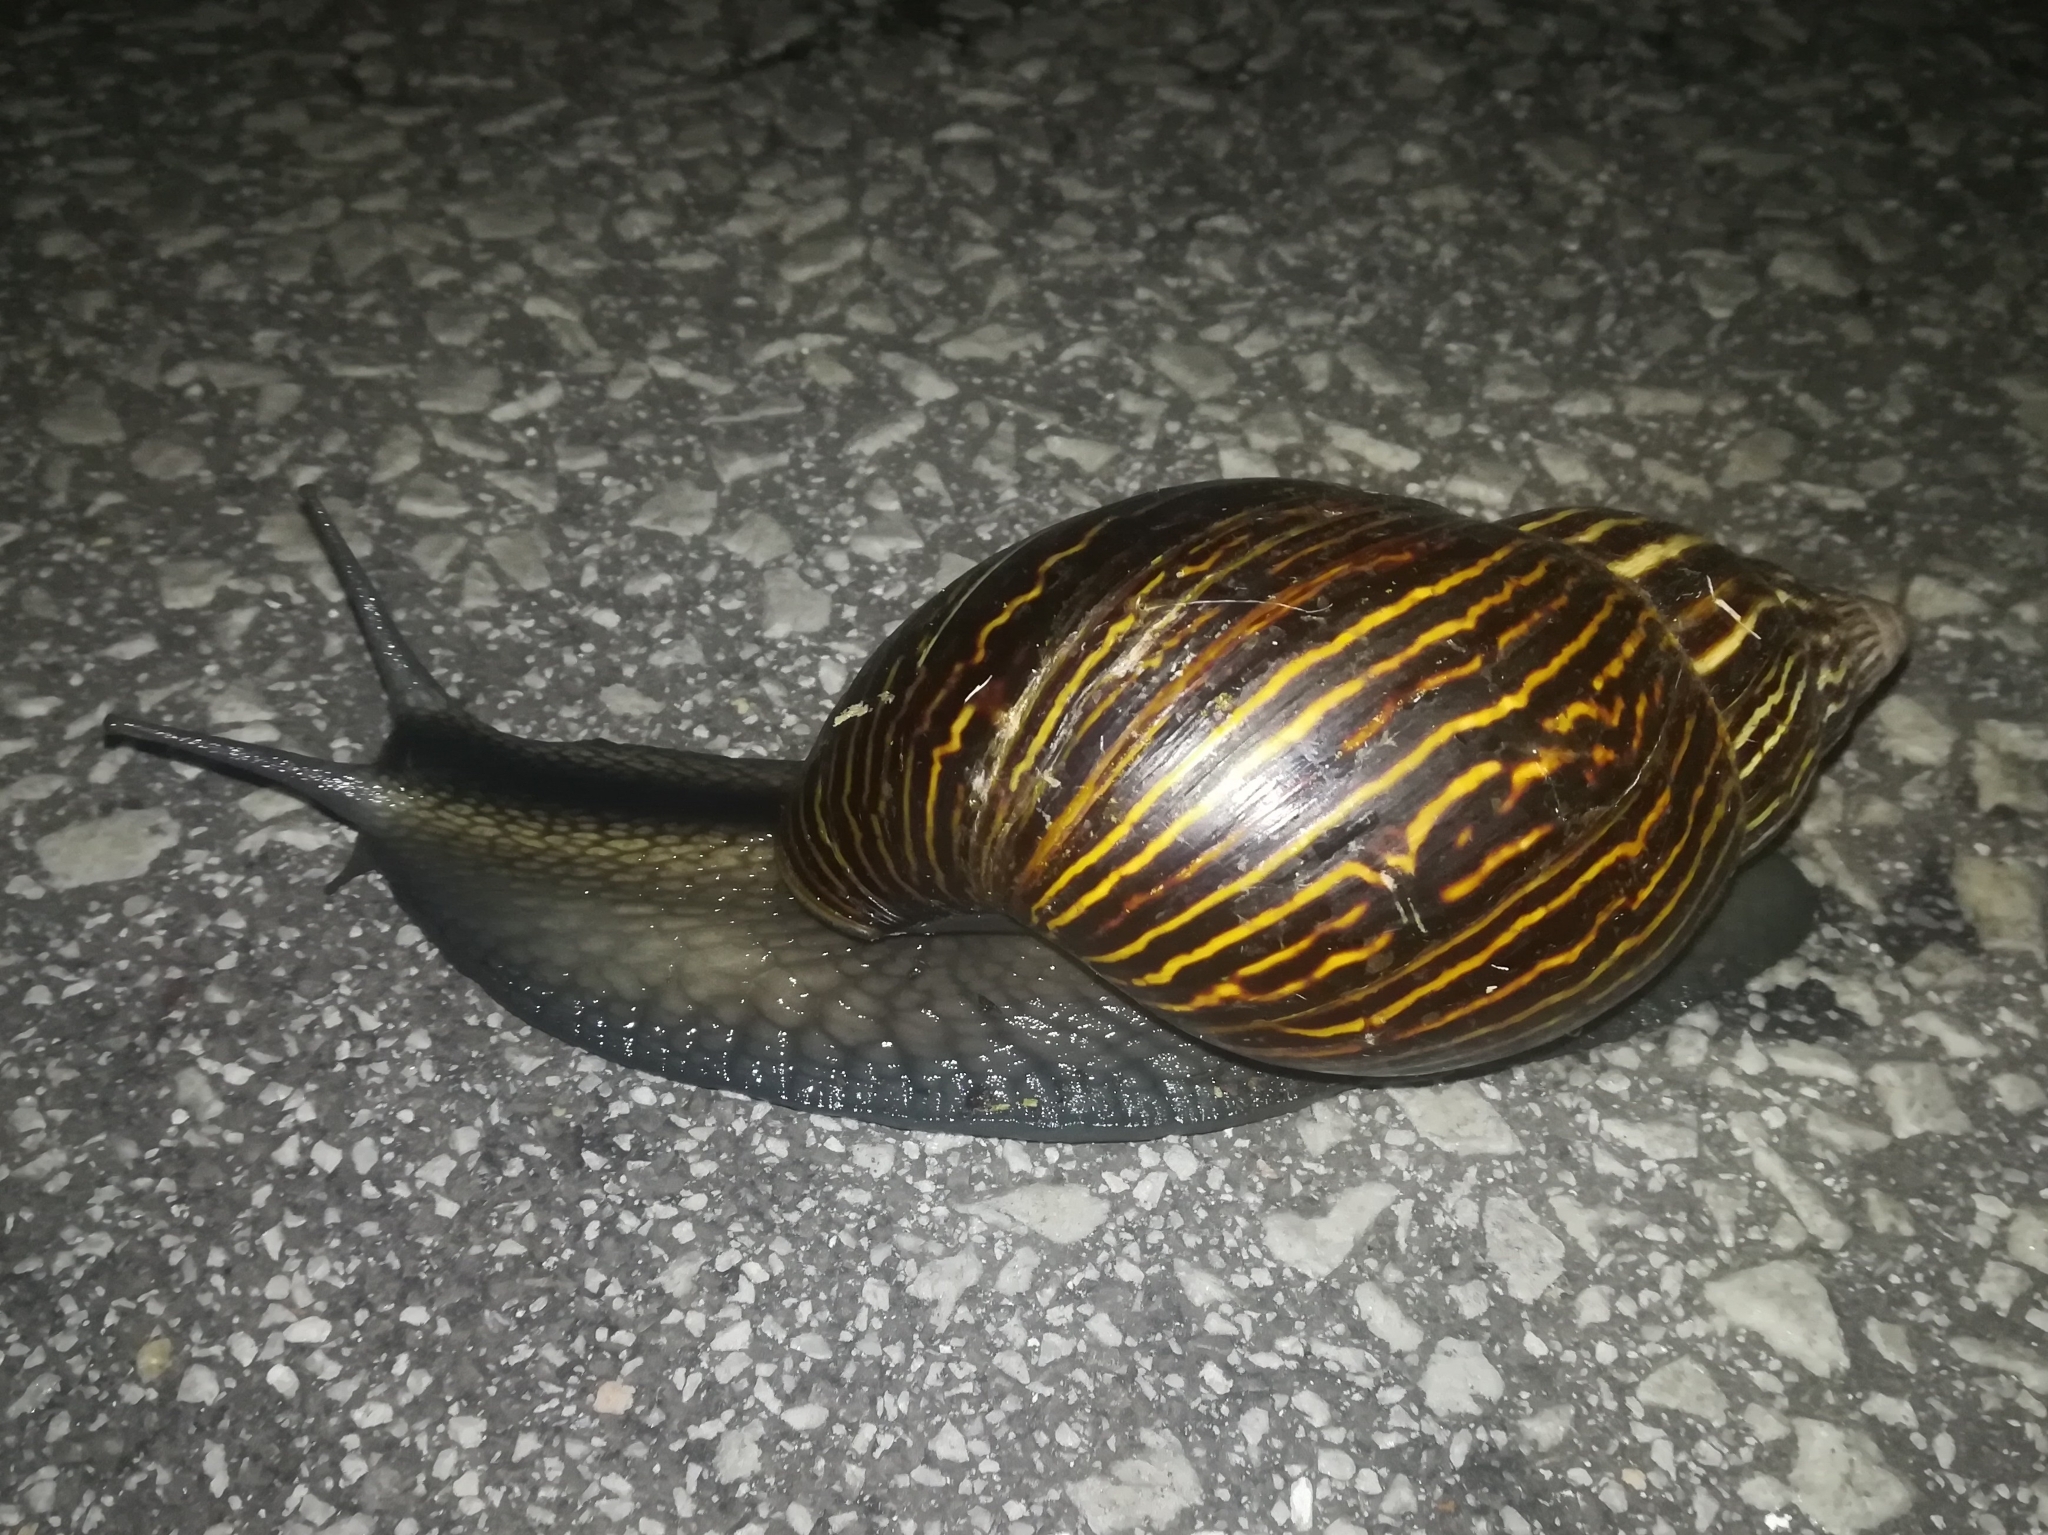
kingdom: Animalia
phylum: Mollusca
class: Gastropoda
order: Stylommatophora
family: Achatinidae
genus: Cochlitoma
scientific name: Cochlitoma zebra
